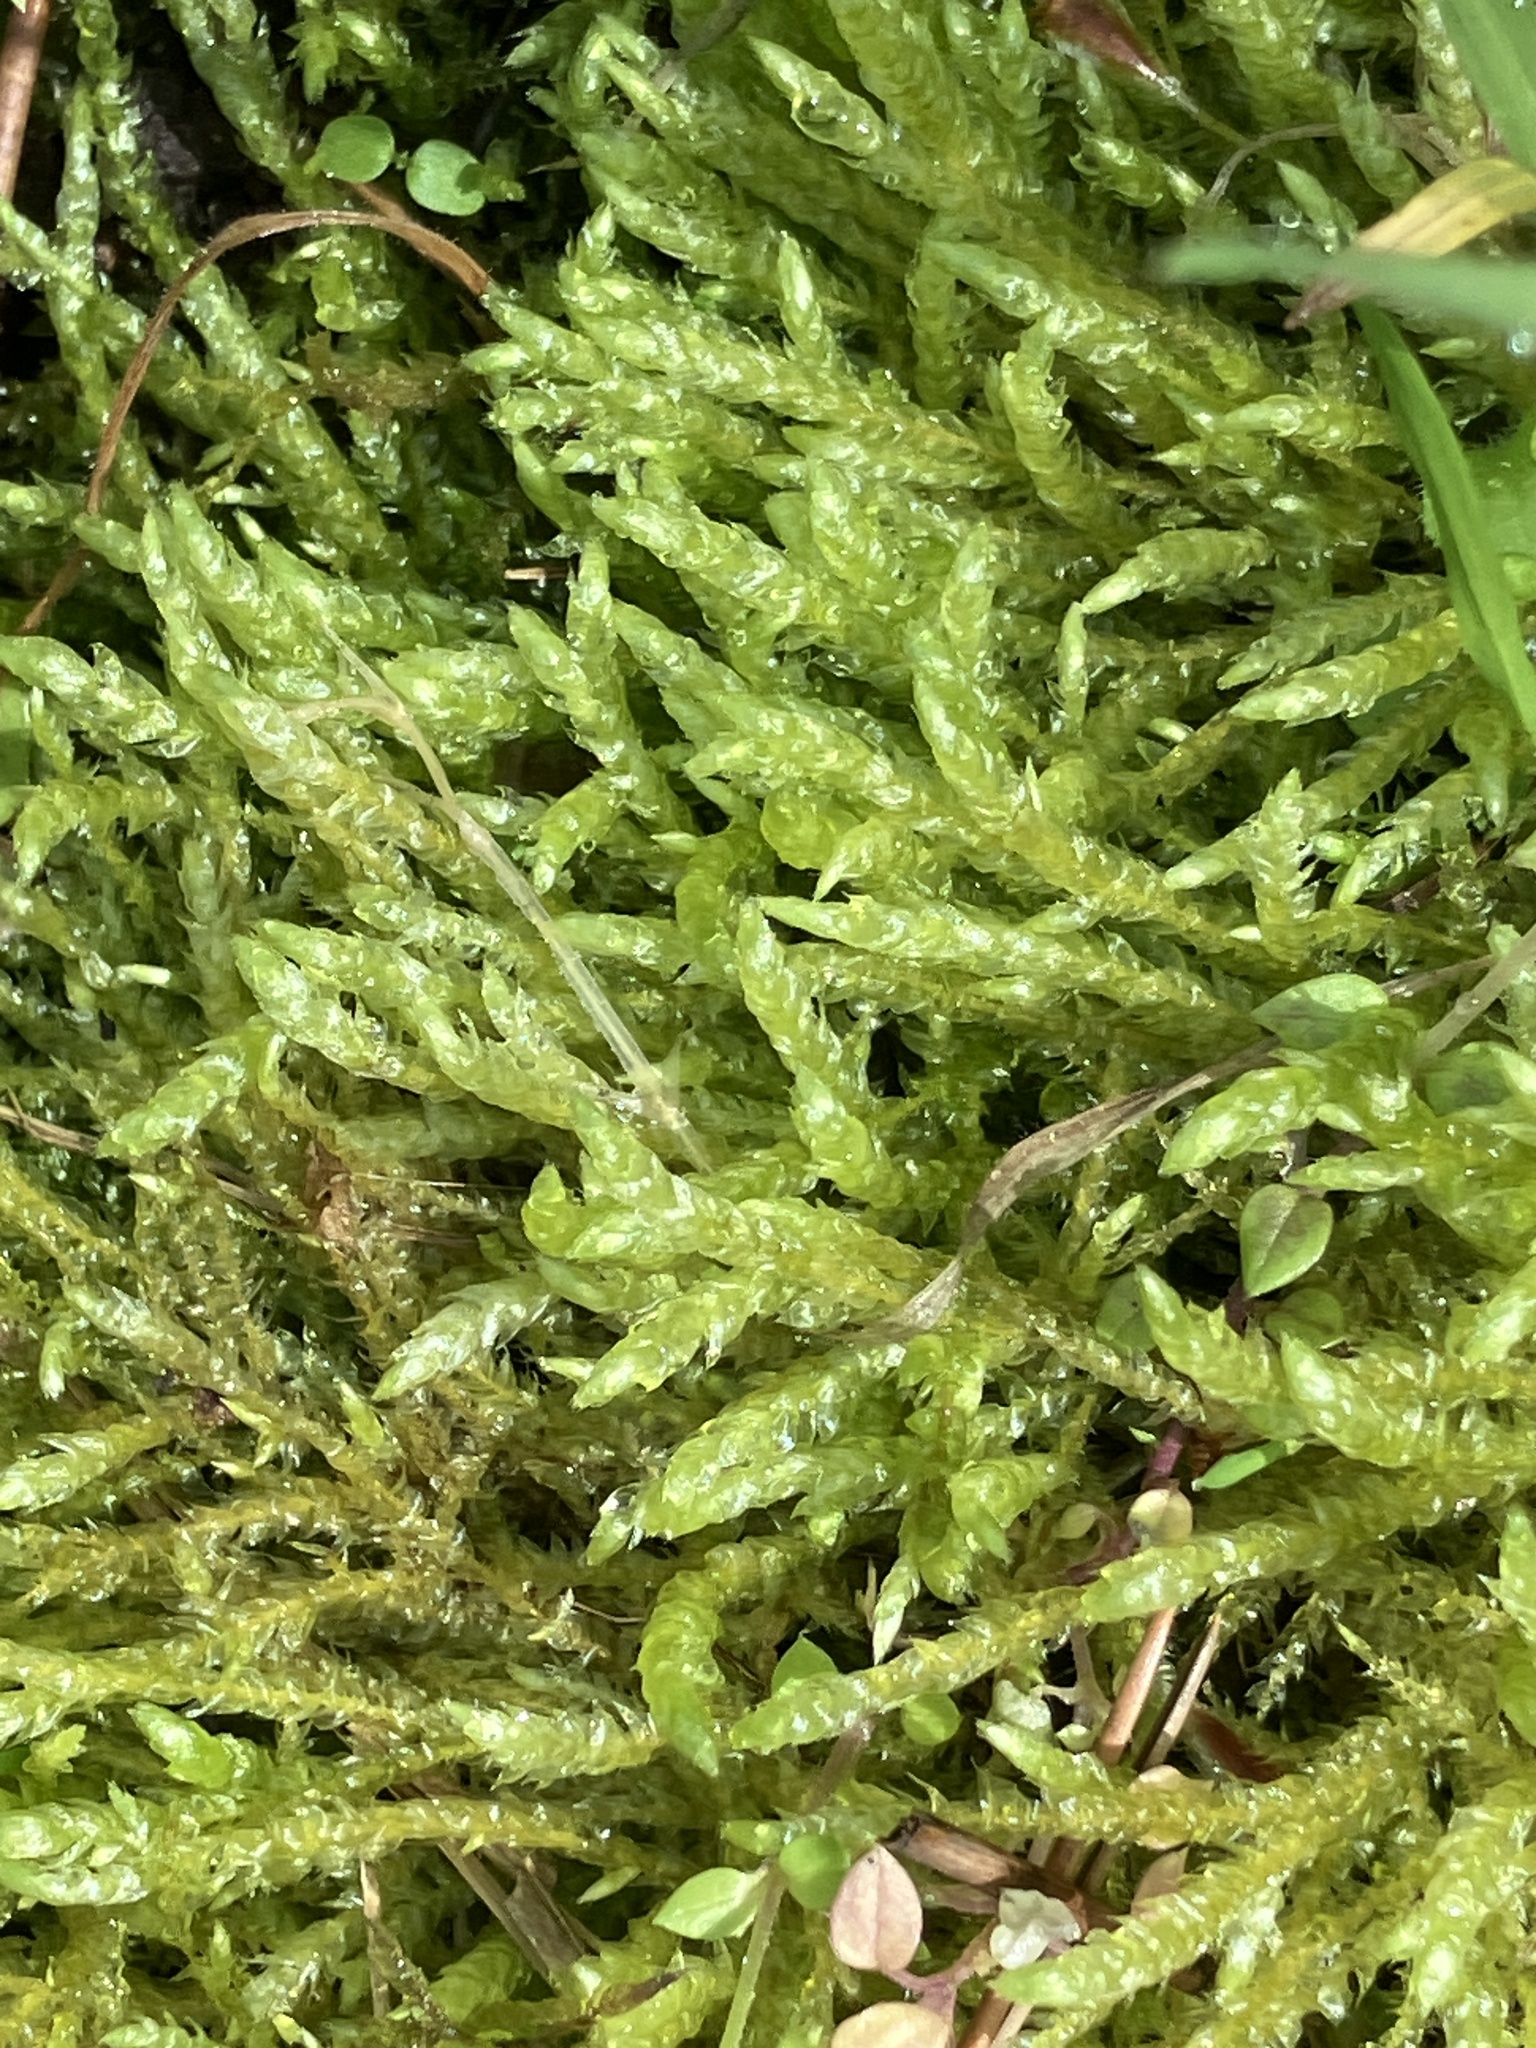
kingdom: Plantae
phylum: Bryophyta
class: Bryopsida
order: Hypnales
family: Brachytheciaceae
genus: Pseudoscleropodium
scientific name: Pseudoscleropodium purum
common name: Neat feather-moss
